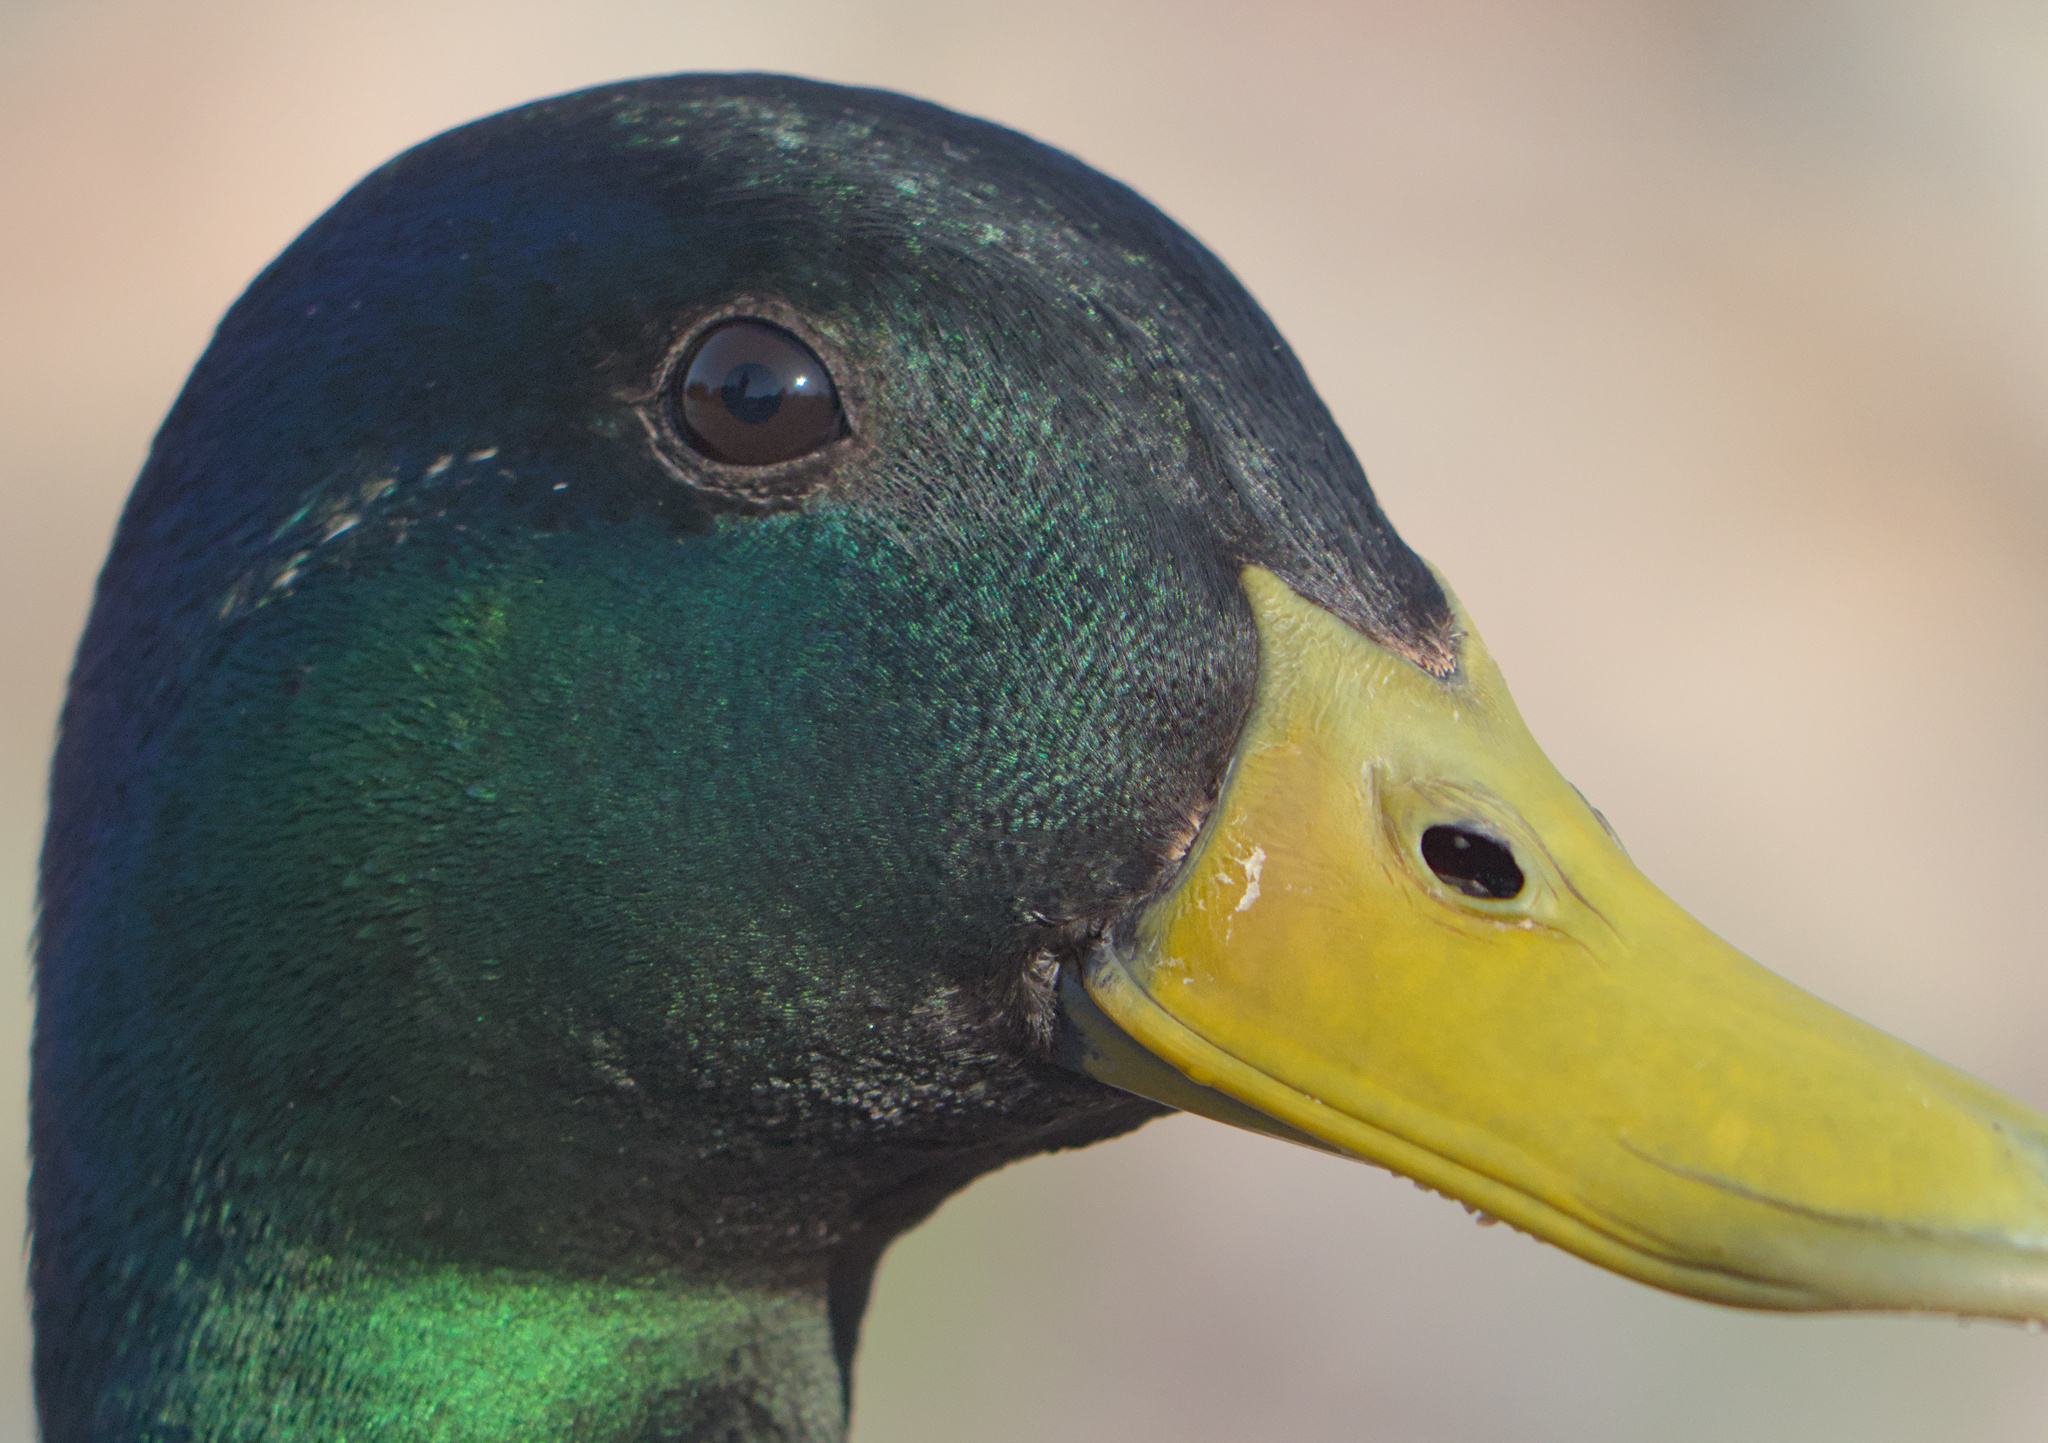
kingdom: Animalia
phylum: Chordata
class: Aves
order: Anseriformes
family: Anatidae
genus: Anas
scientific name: Anas platyrhynchos
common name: Mallard
